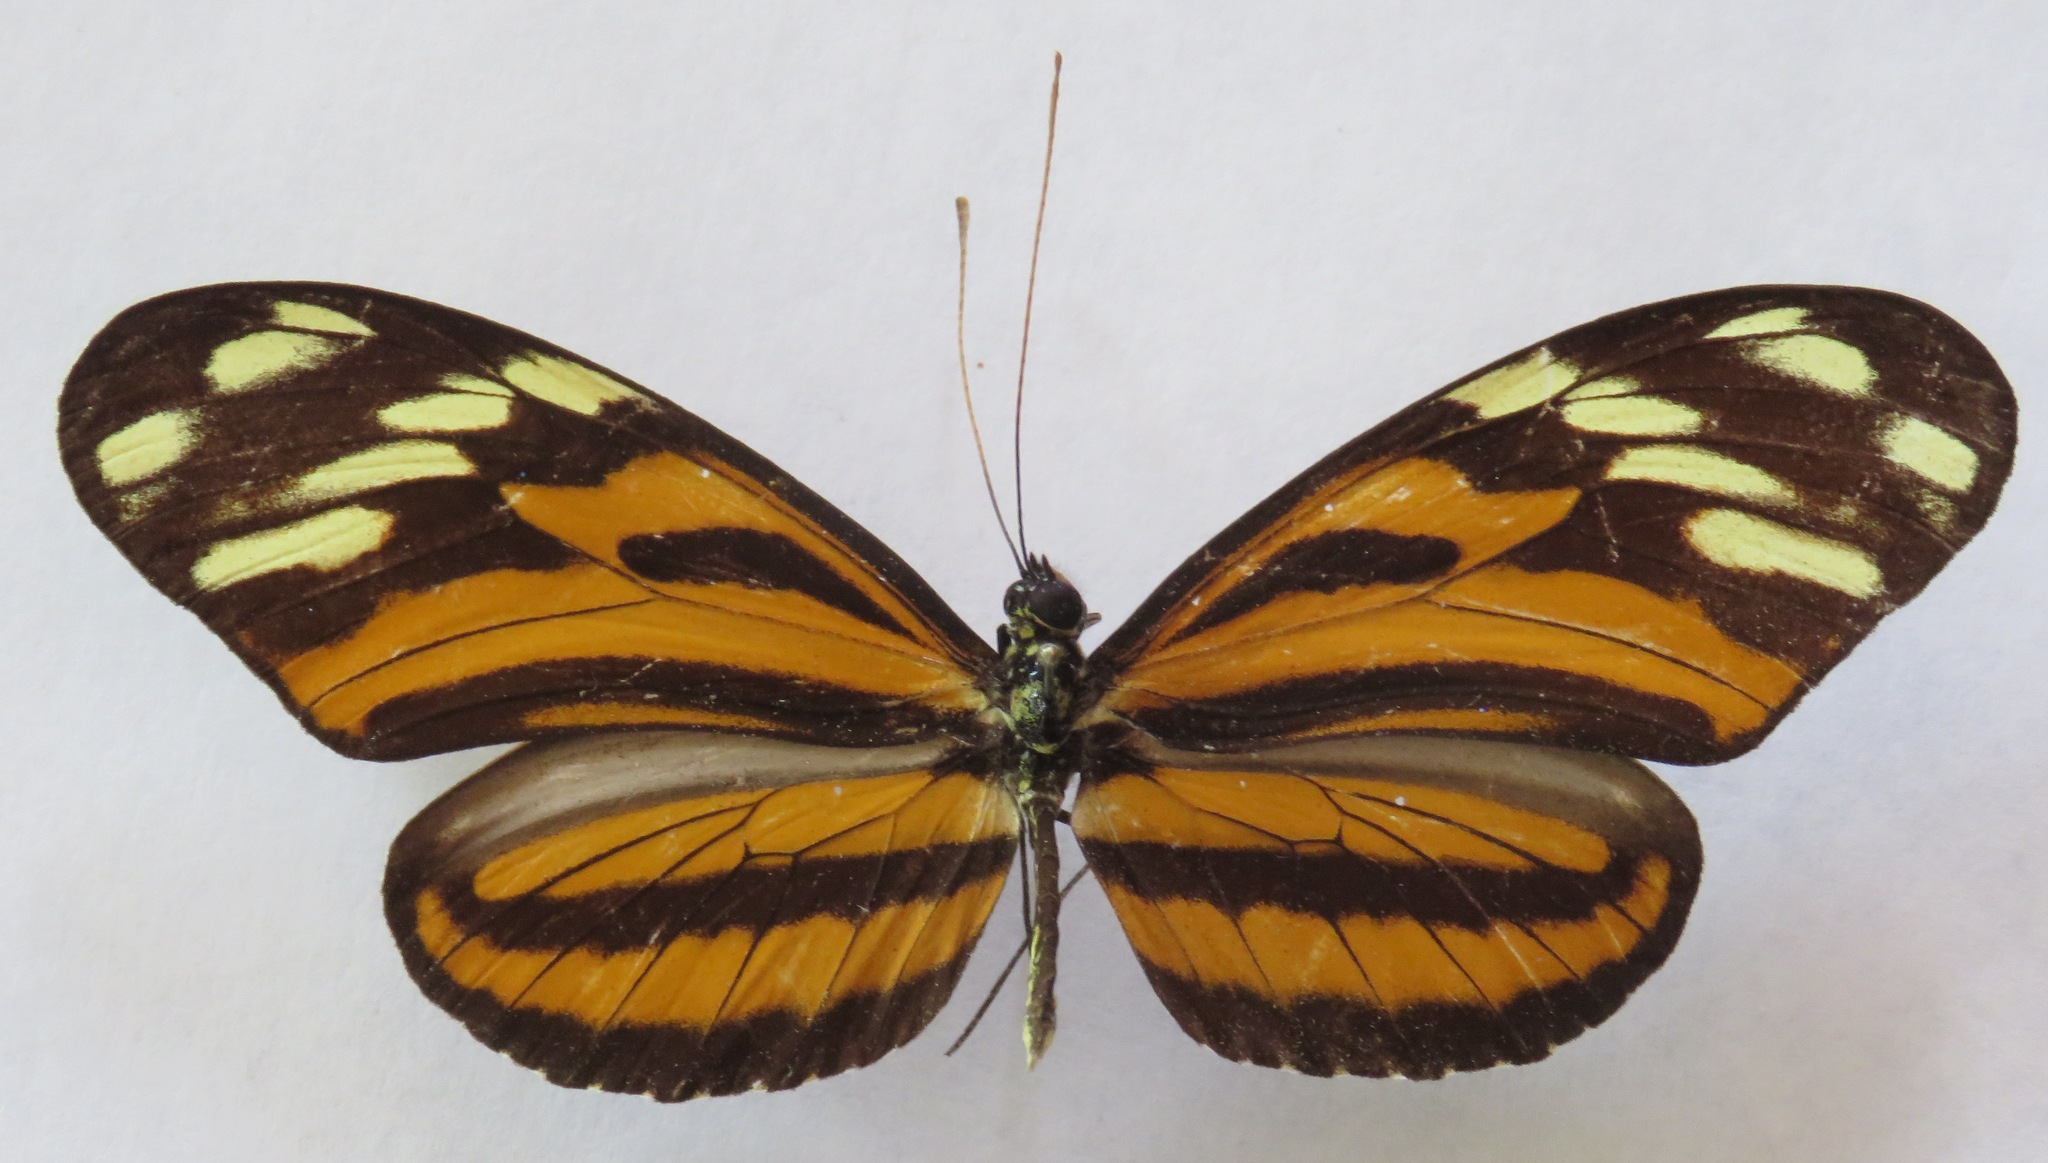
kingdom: Animalia
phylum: Arthropoda
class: Insecta
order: Lepidoptera
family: Nymphalidae
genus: Heliconius
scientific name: Heliconius ismenius
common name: Ismenius tiger
